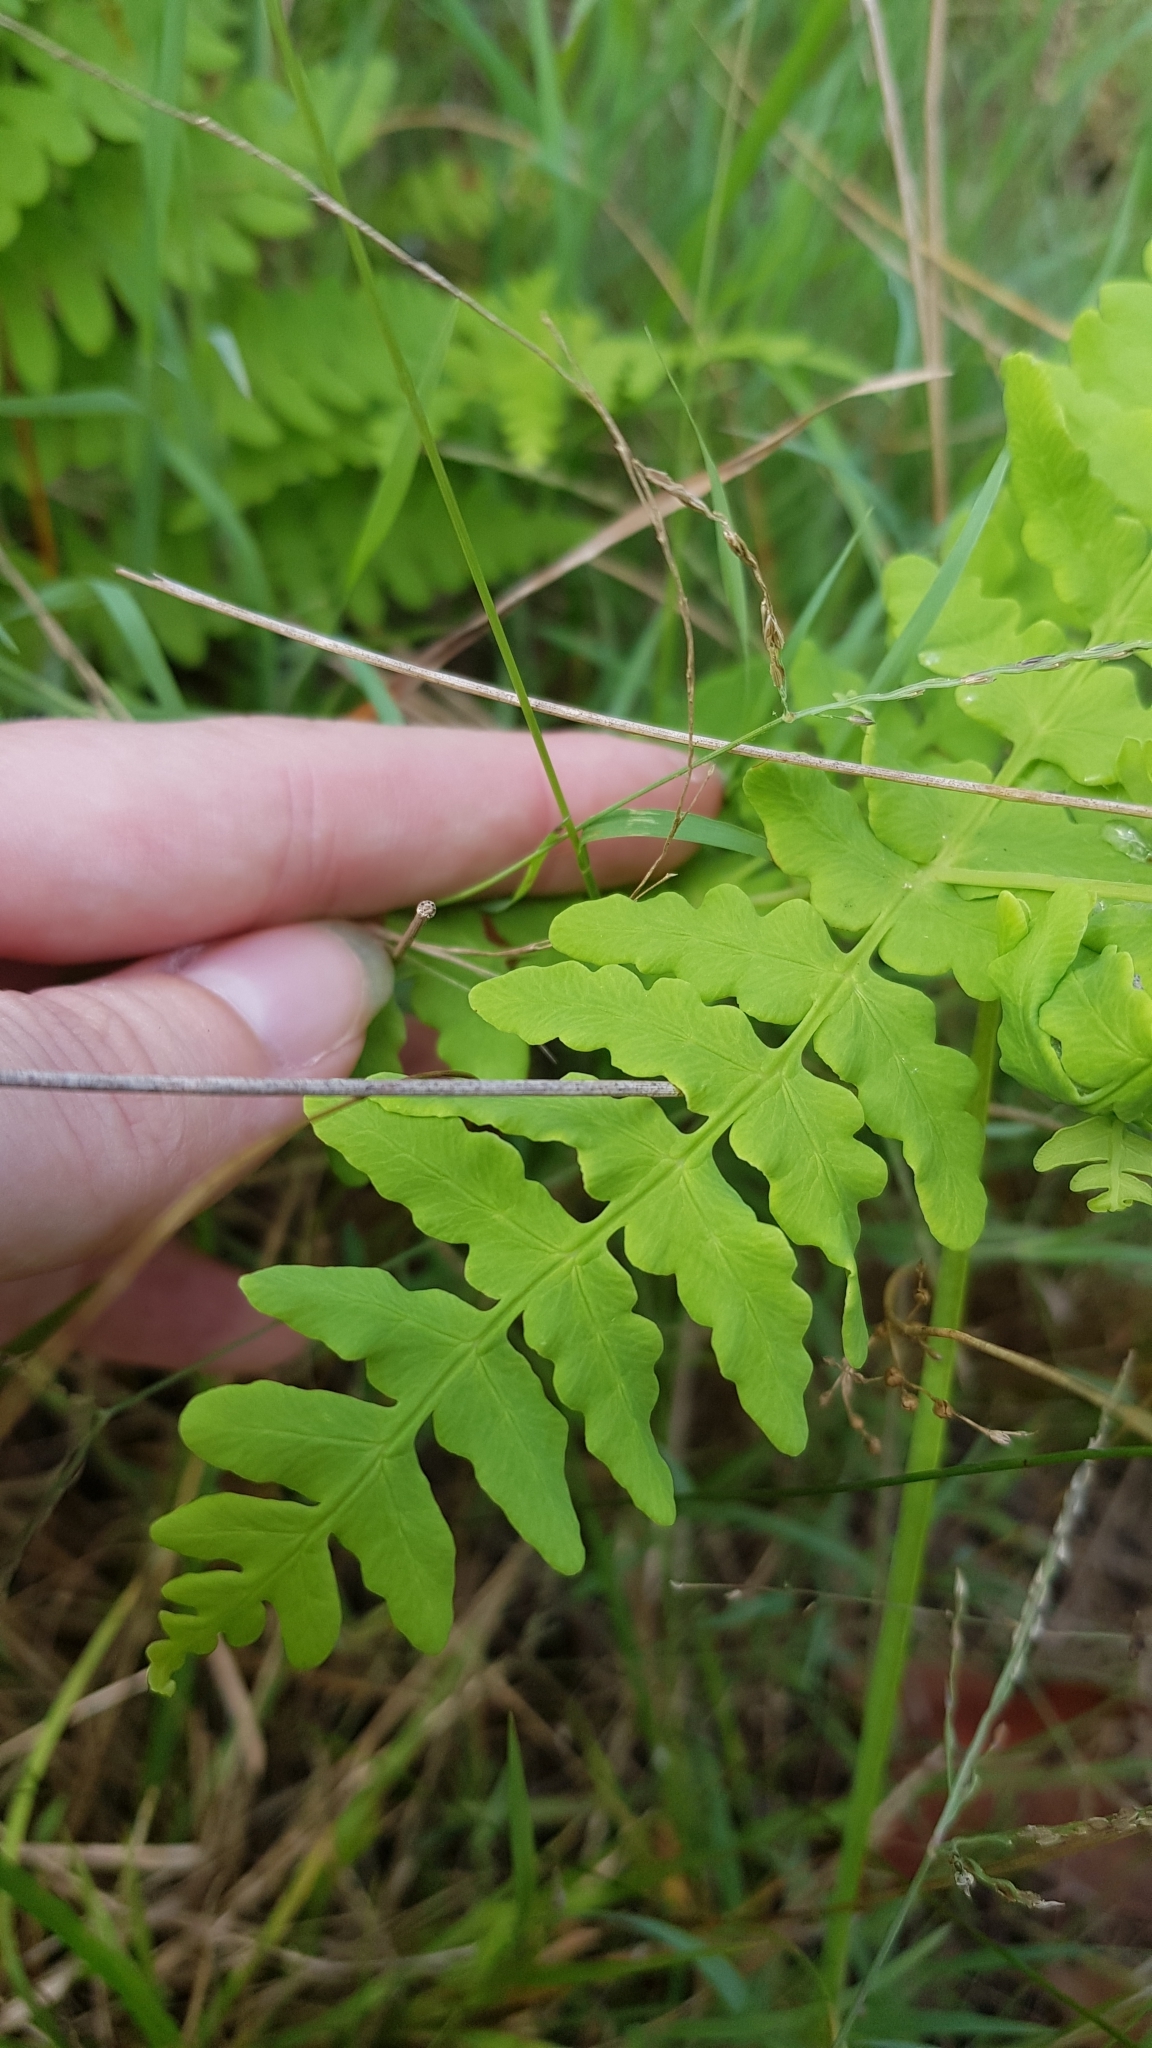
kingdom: Plantae
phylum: Tracheophyta
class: Polypodiopsida
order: Polypodiales
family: Dennstaedtiaceae
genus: Histiopteris
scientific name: Histiopteris incisa
